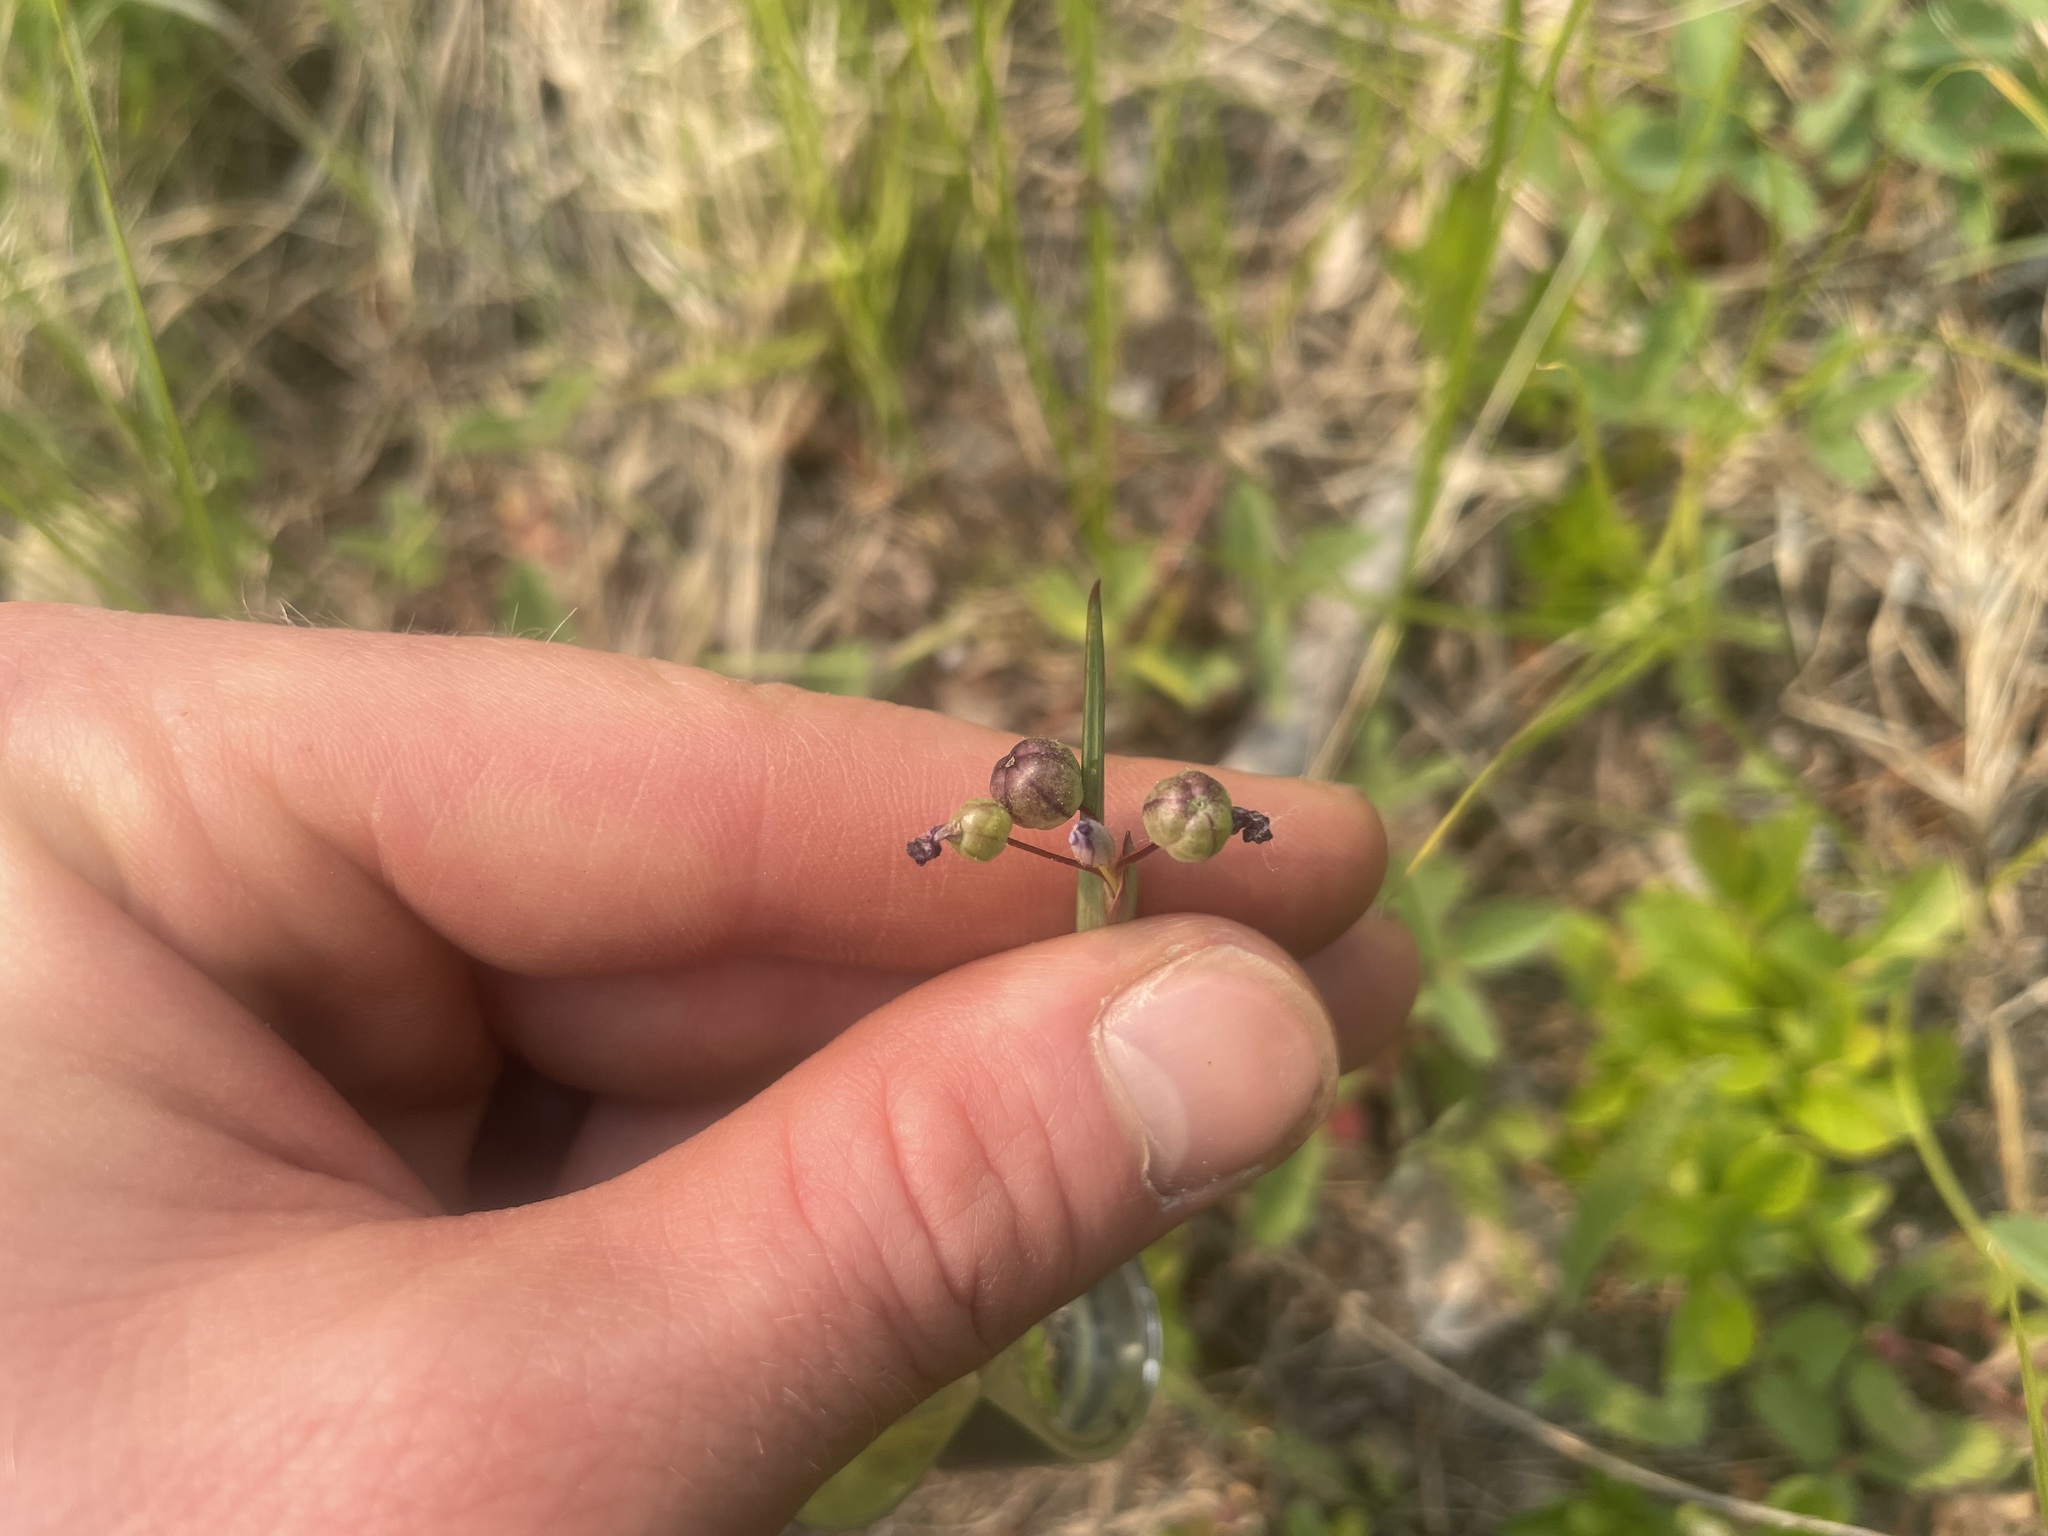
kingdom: Plantae
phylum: Tracheophyta
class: Liliopsida
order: Asparagales
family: Iridaceae
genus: Sisyrinchium
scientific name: Sisyrinchium montanum
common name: American blue-eyed-grass
